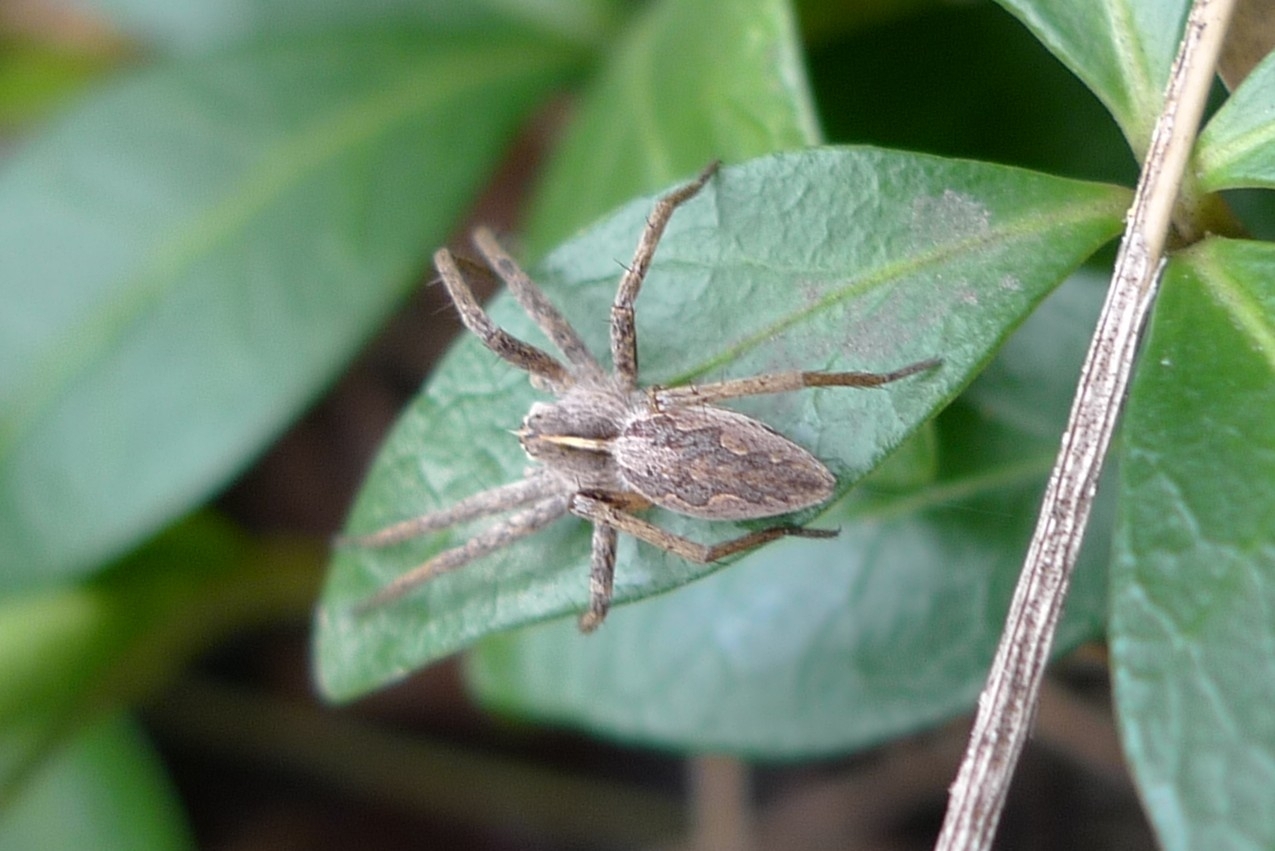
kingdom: Animalia
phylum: Arthropoda
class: Arachnida
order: Araneae
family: Pisauridae
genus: Pisaura
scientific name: Pisaura mirabilis
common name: Tent spider
